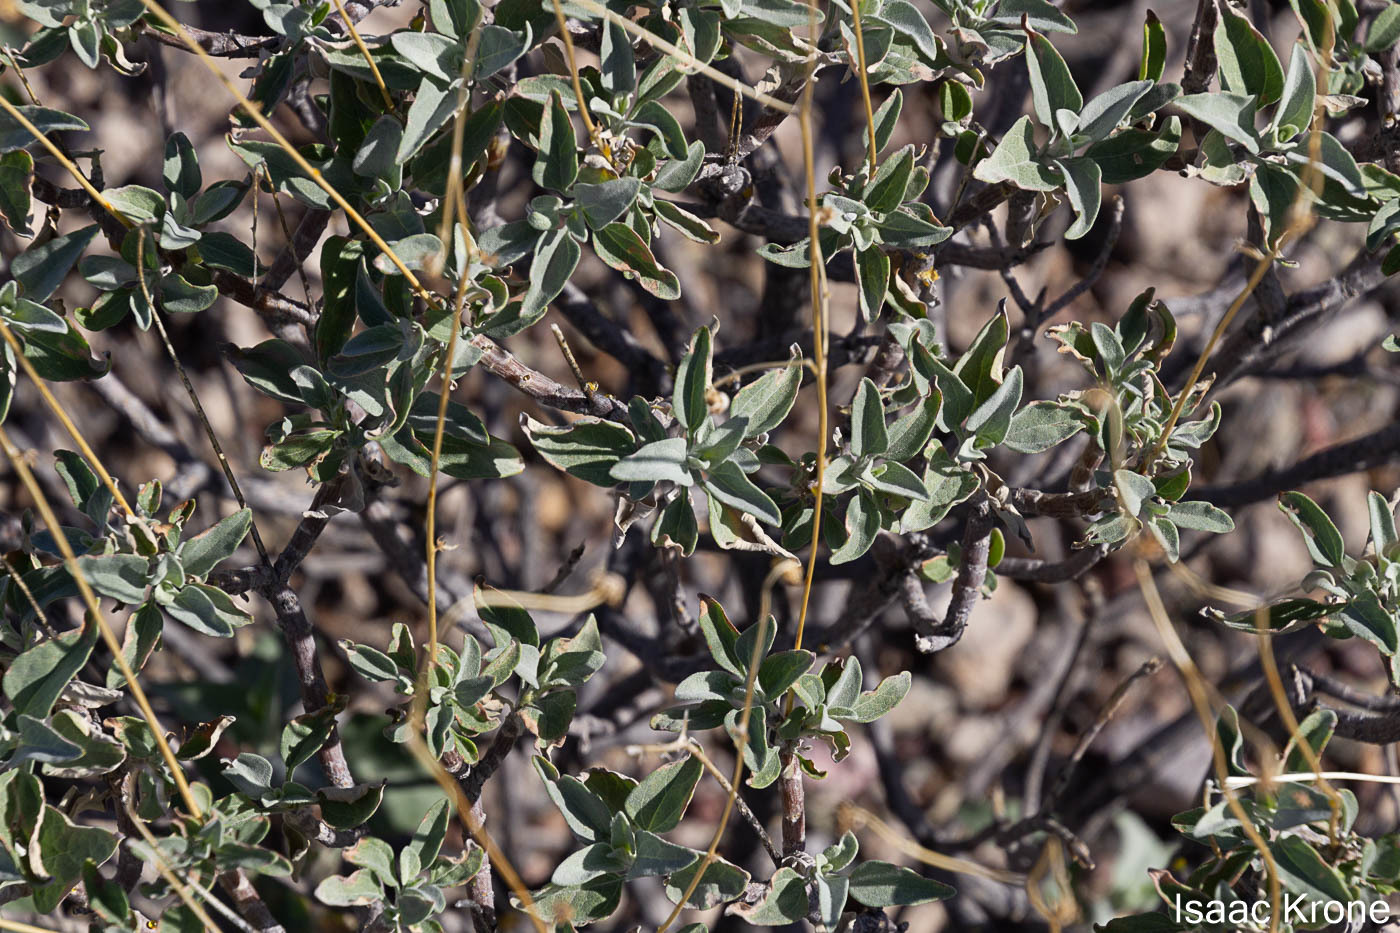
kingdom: Plantae
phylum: Tracheophyta
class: Magnoliopsida
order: Asterales
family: Asteraceae
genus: Encelia
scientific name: Encelia farinosa
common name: Brittlebush
